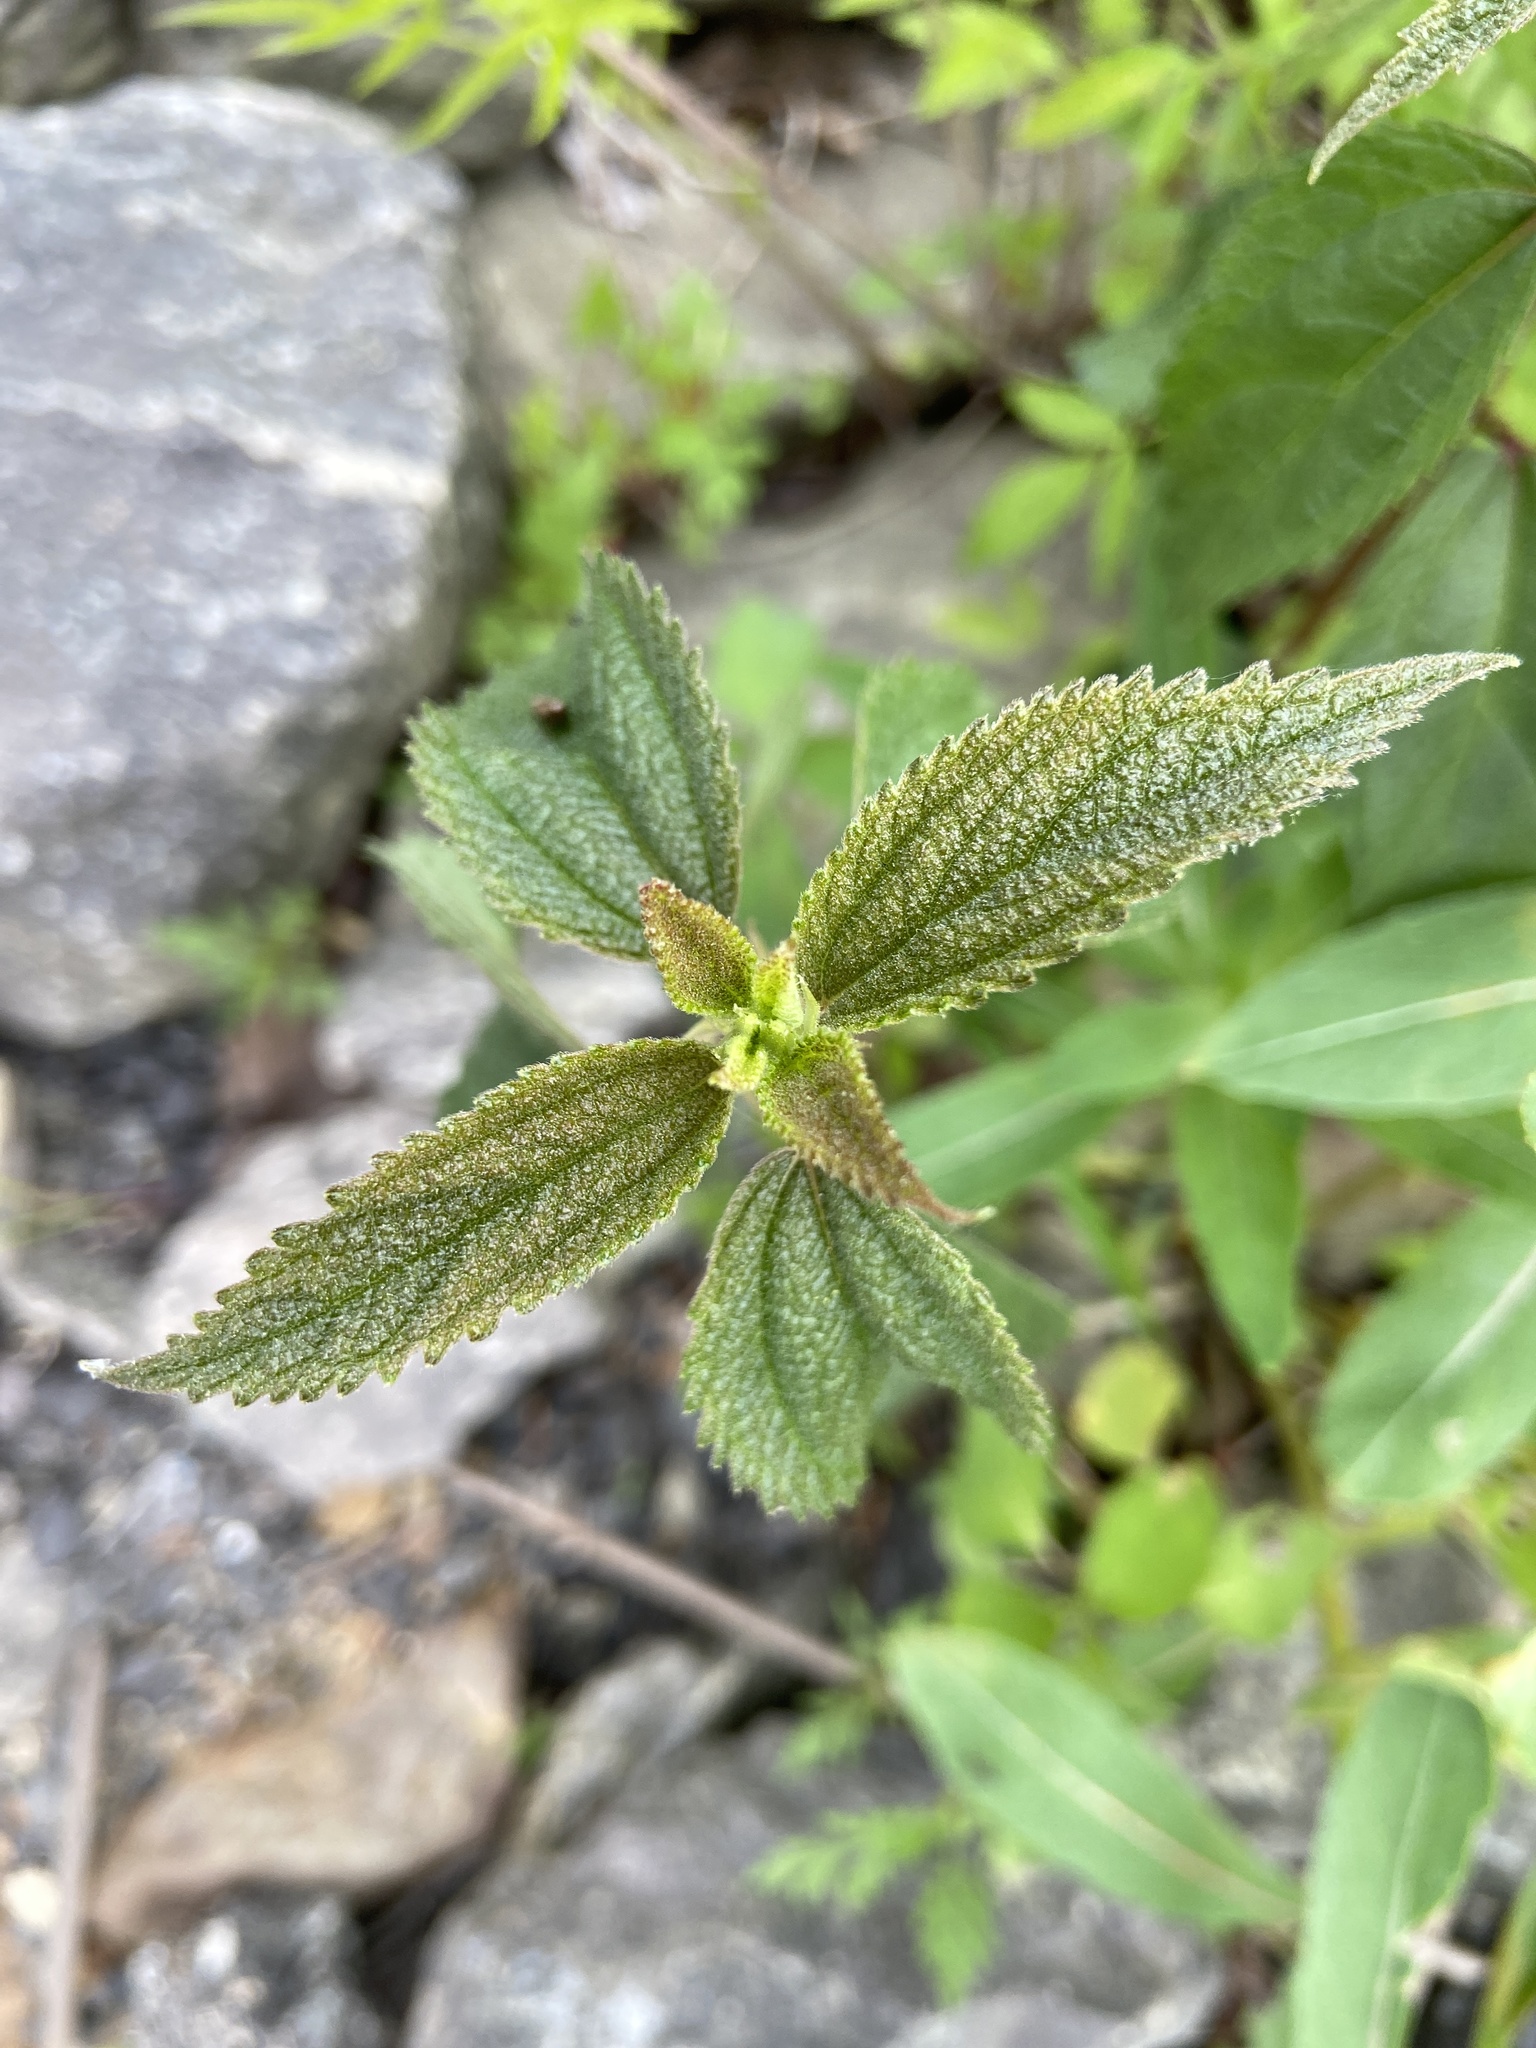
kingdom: Plantae
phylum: Tracheophyta
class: Magnoliopsida
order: Rosales
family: Urticaceae
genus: Boehmeria
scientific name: Boehmeria cylindrica
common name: Bog-hemp
